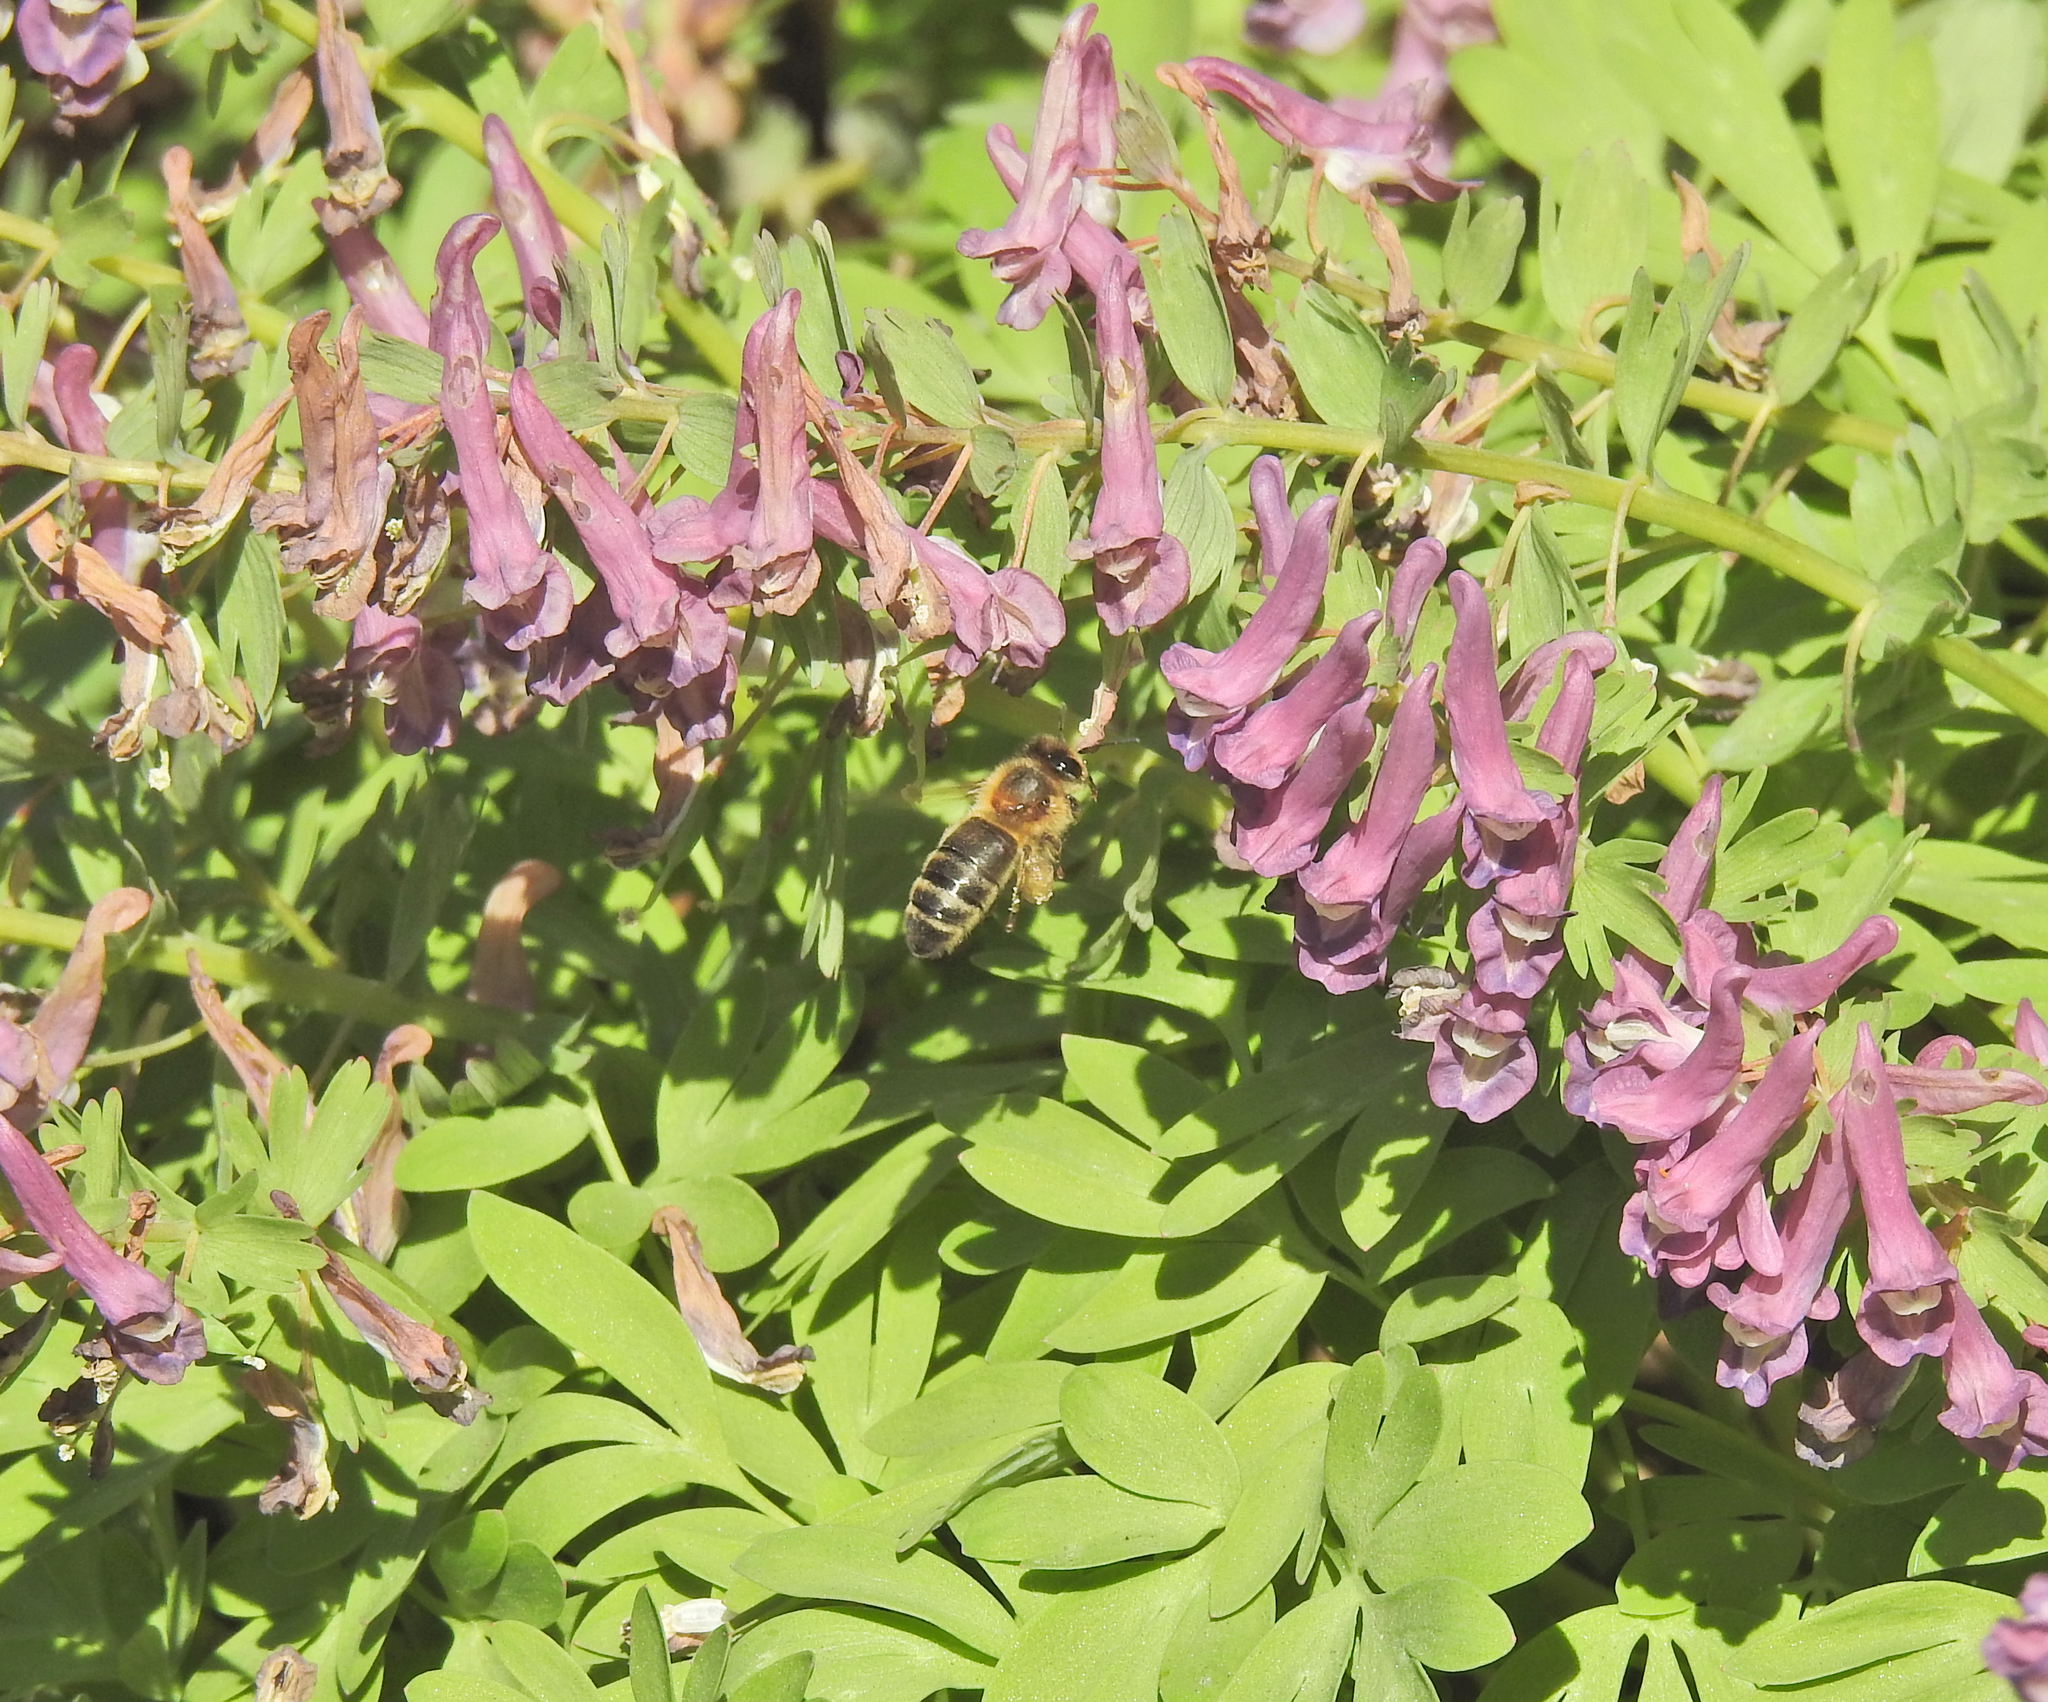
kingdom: Animalia
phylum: Arthropoda
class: Insecta
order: Hymenoptera
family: Apidae
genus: Apis
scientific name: Apis mellifera
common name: Honey bee
